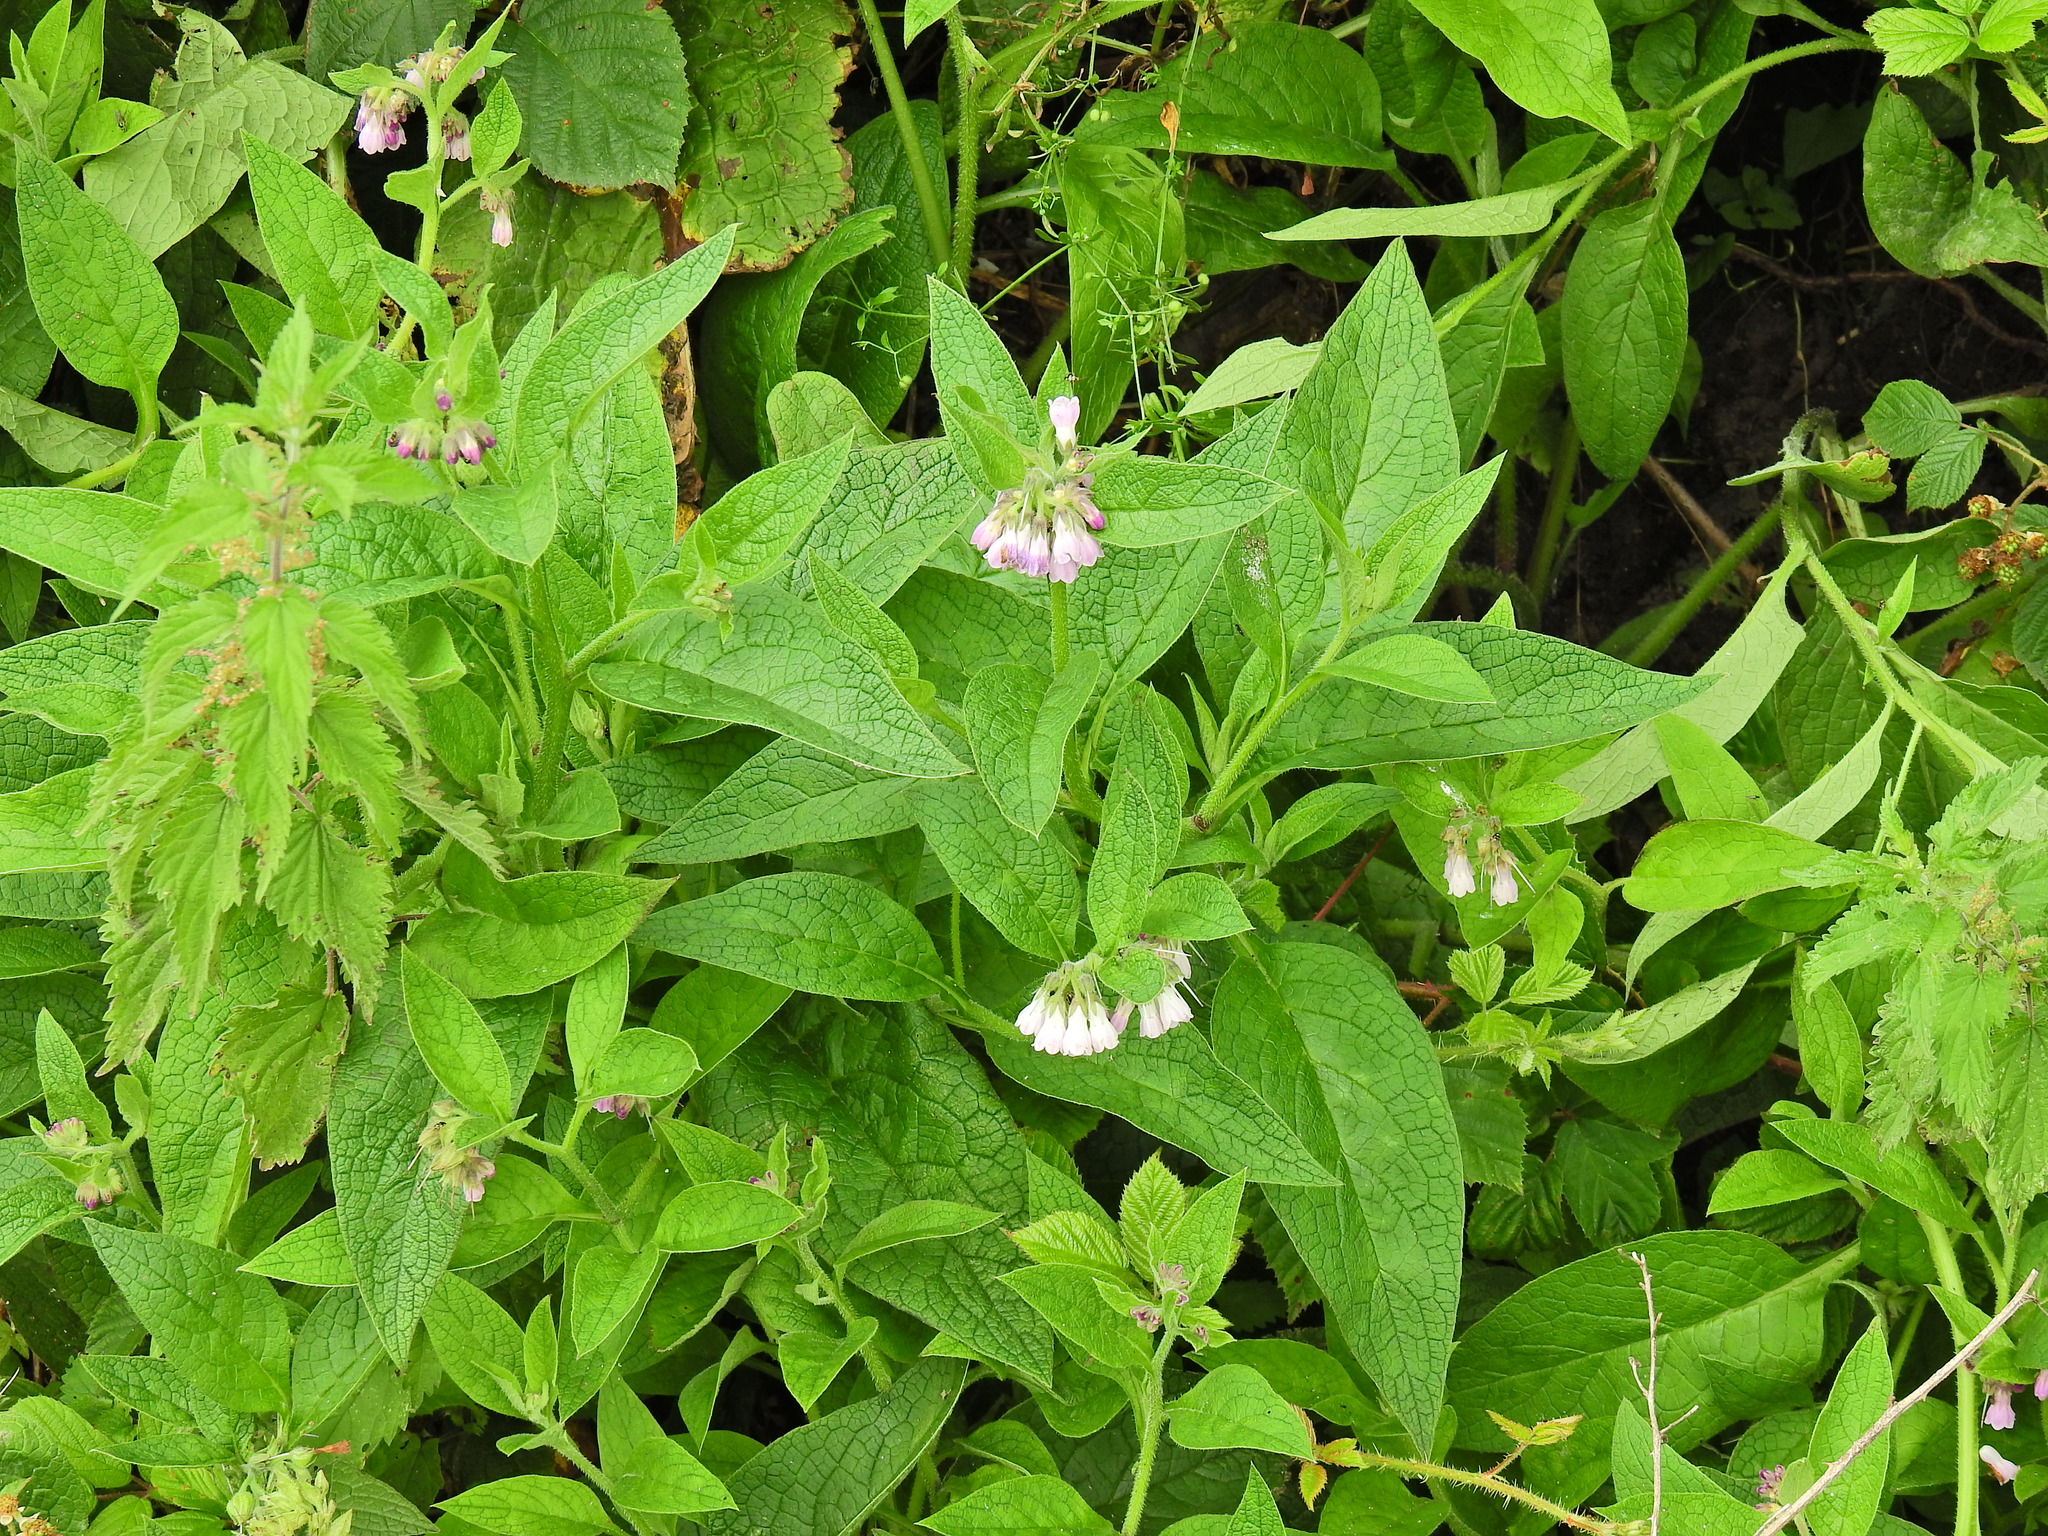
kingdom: Plantae
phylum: Tracheophyta
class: Magnoliopsida
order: Boraginales
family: Boraginaceae
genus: Symphytum
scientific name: Symphytum officinale
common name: Common comfrey
